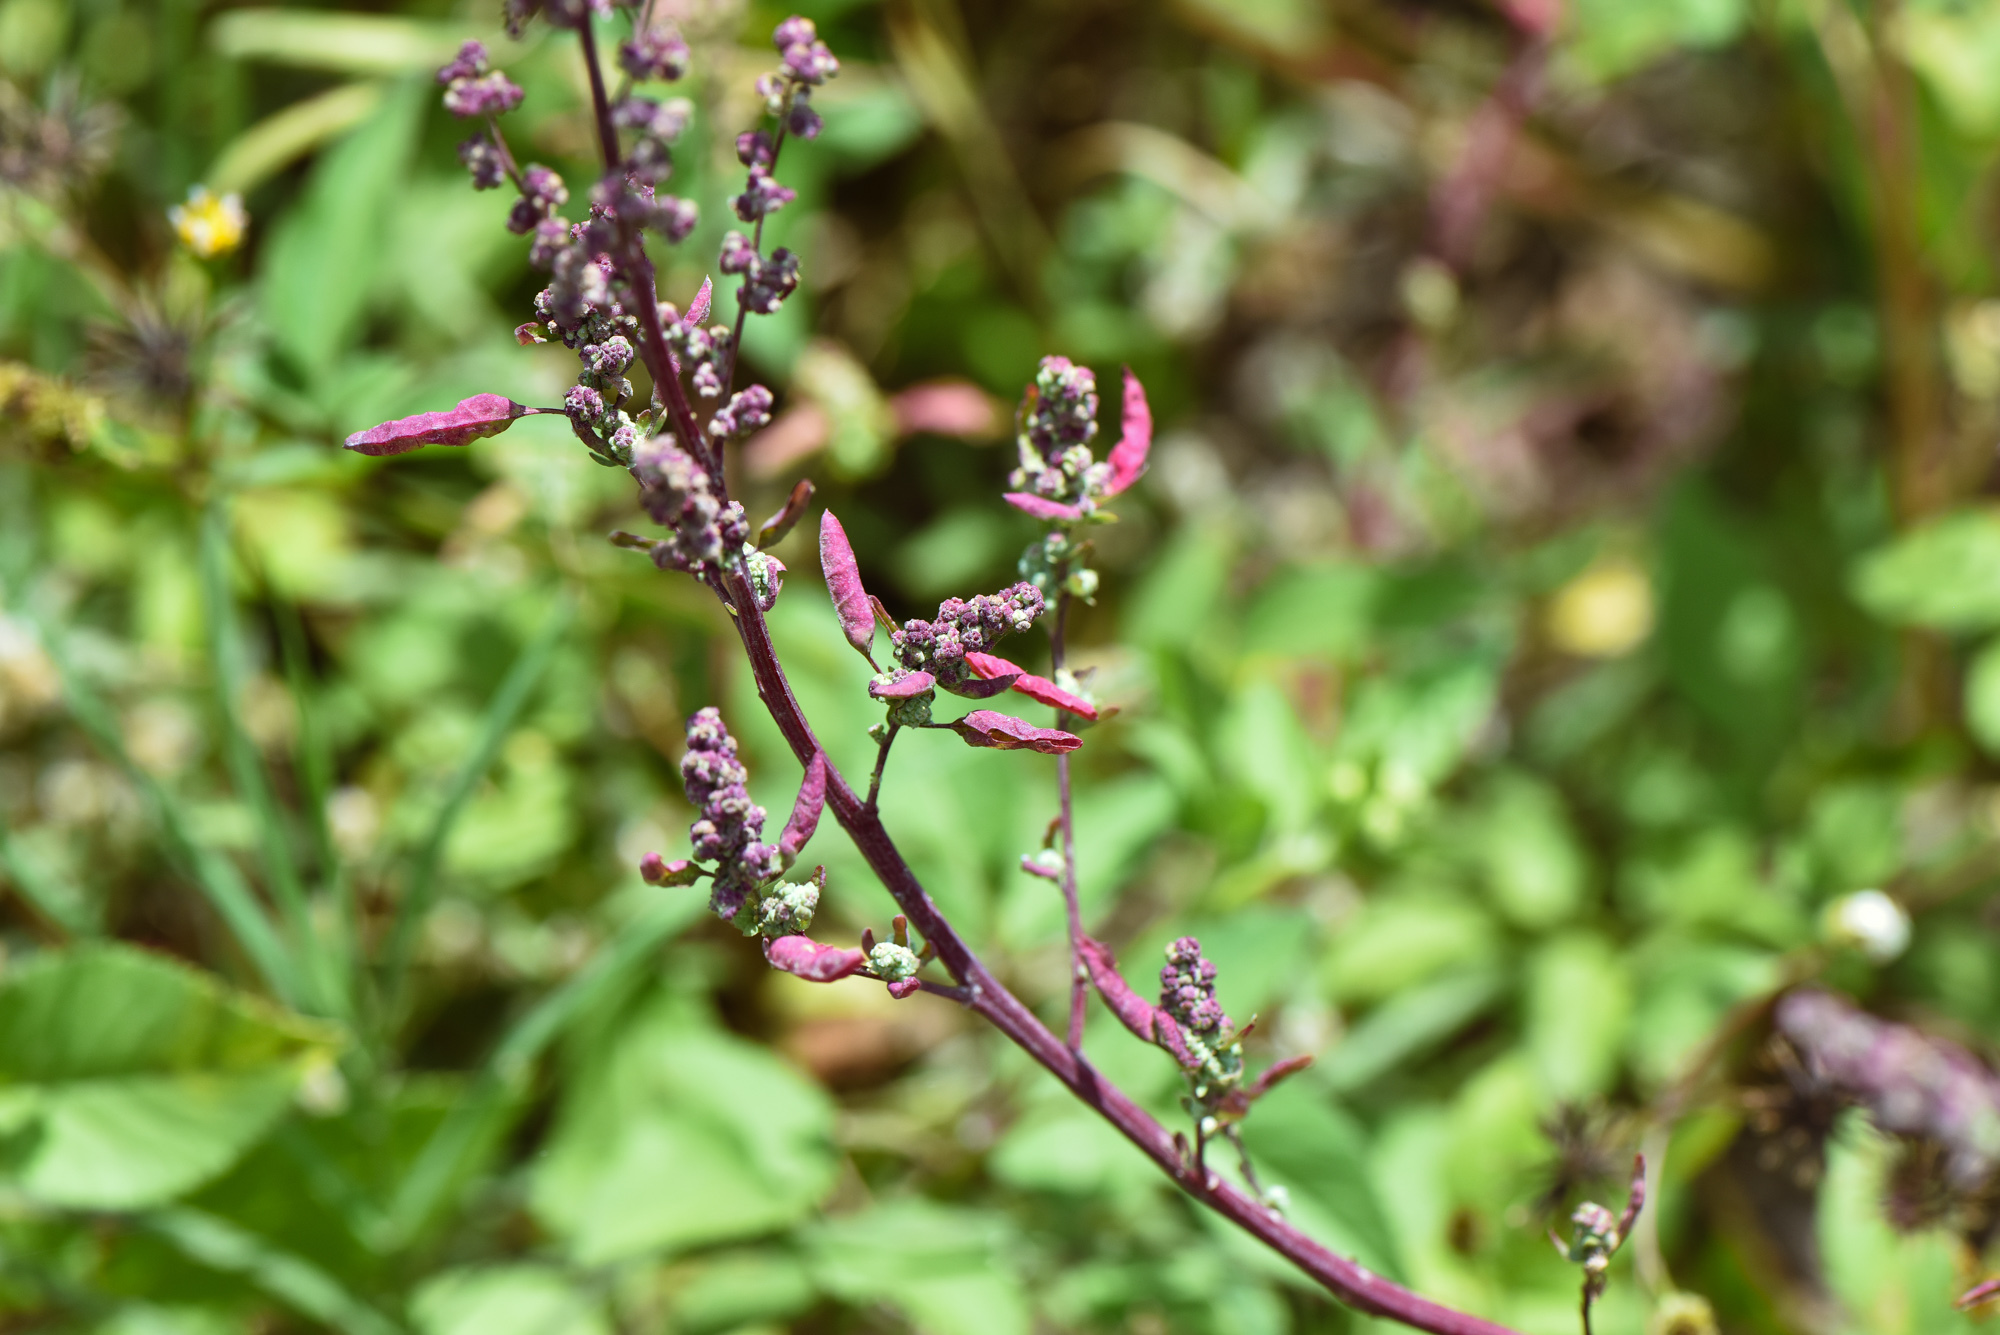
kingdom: Plantae
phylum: Tracheophyta
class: Magnoliopsida
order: Caryophyllales
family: Amaranthaceae
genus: Chenopodium
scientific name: Chenopodium ficifolium
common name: Fig-leaved goosefoot
